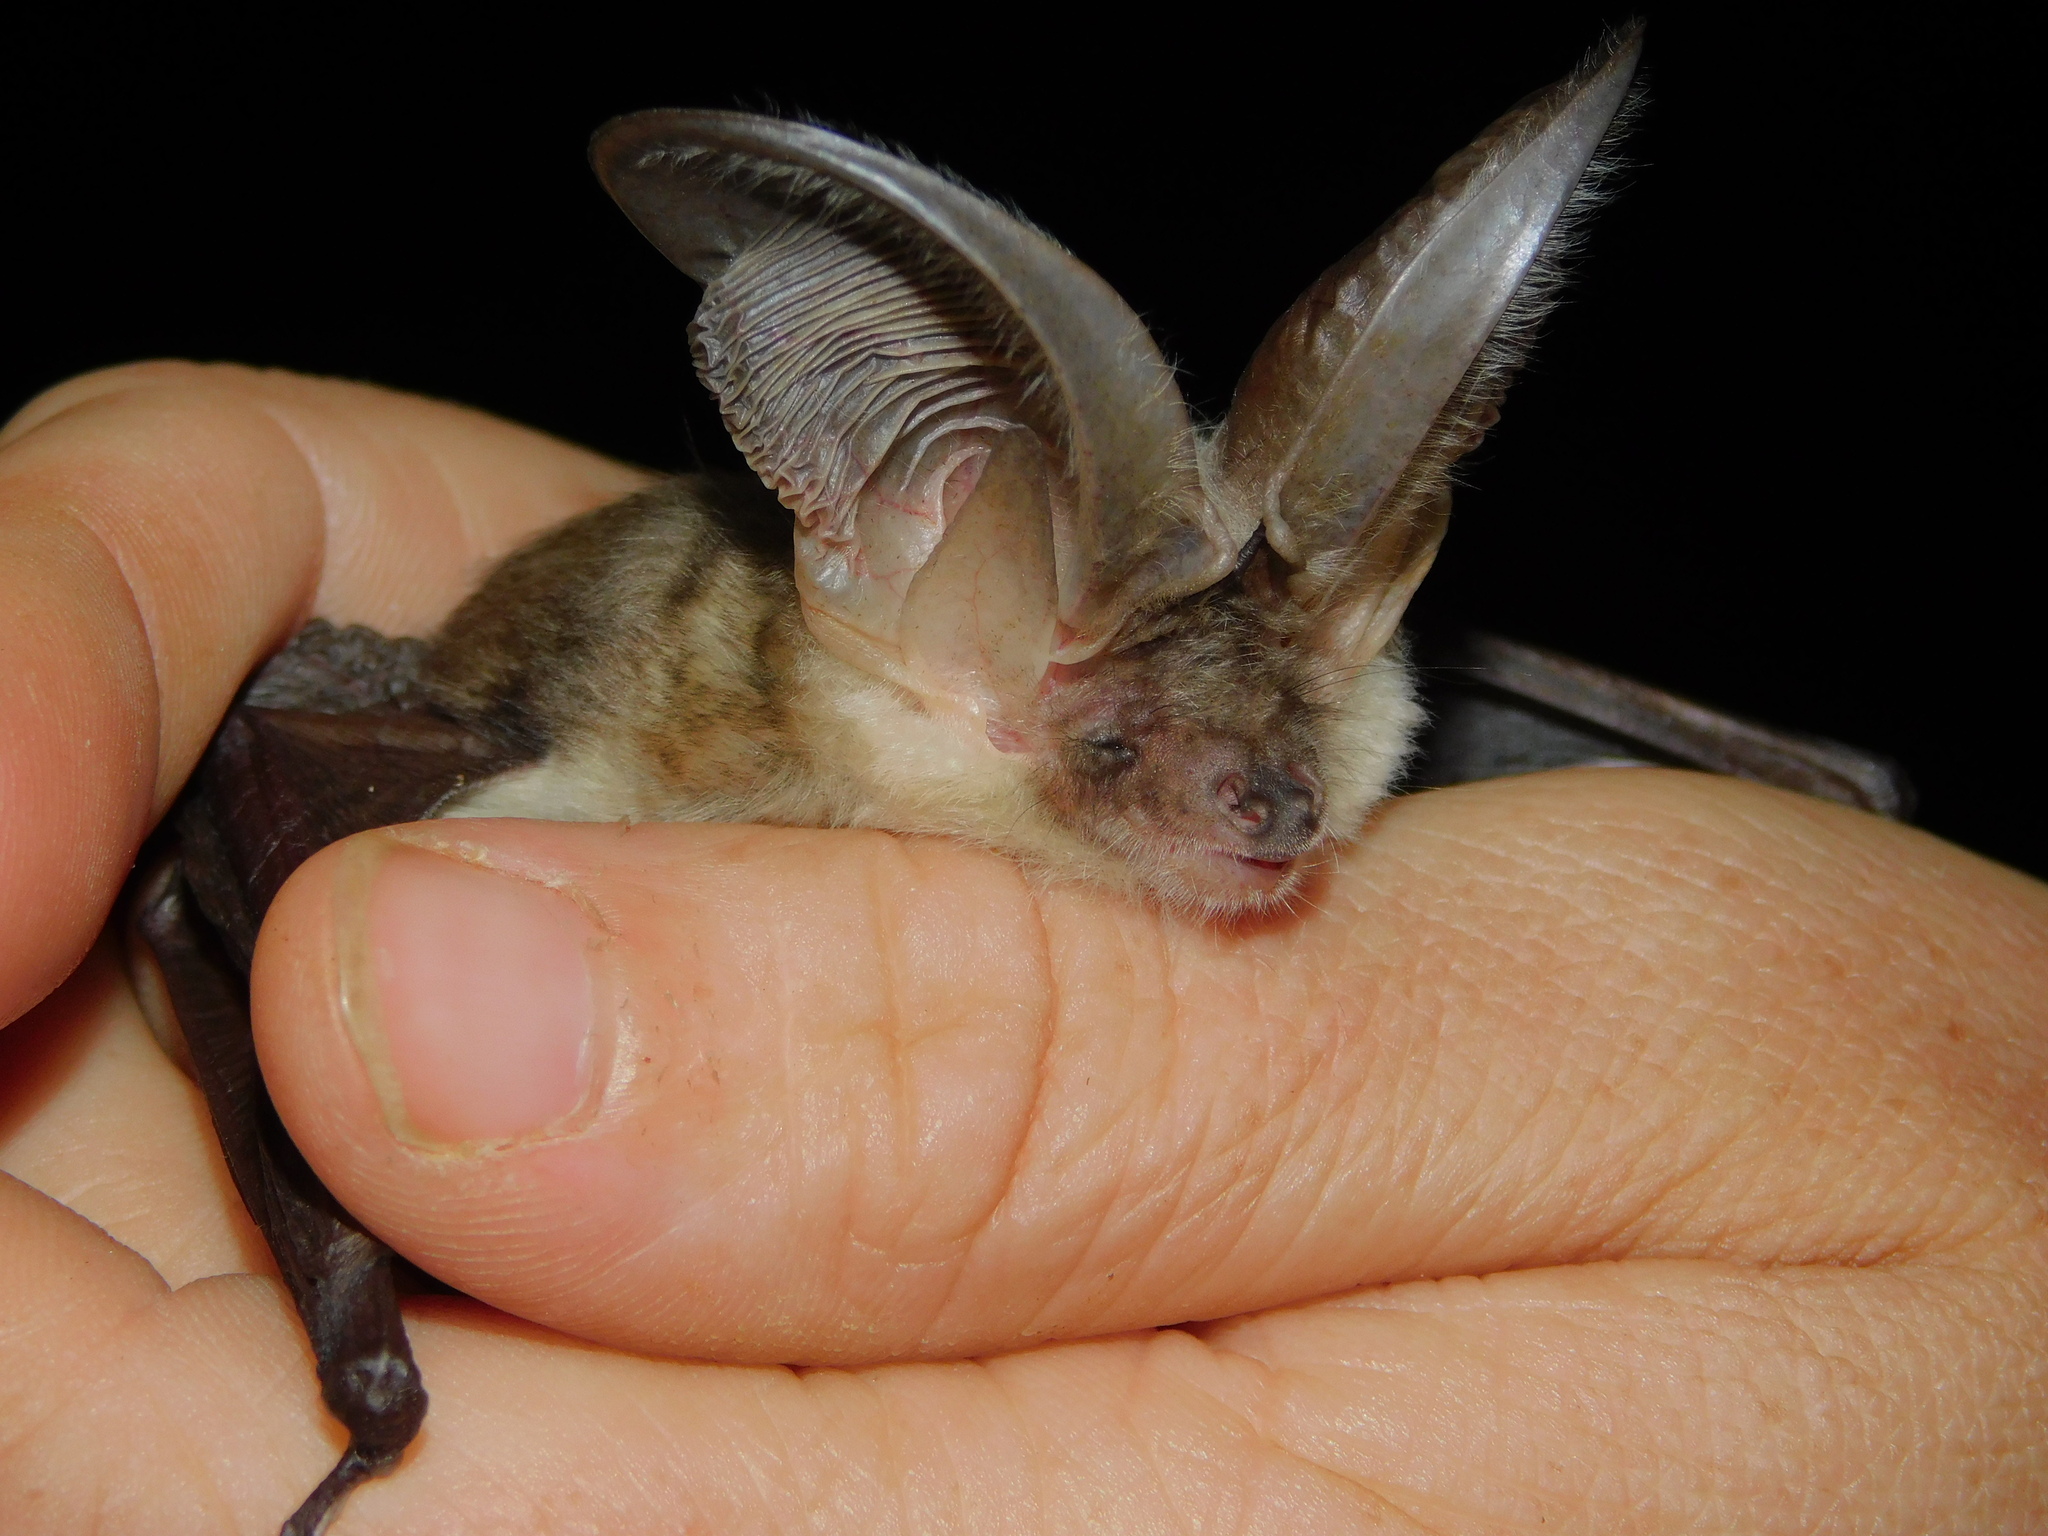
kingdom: Animalia
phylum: Chordata
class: Mammalia
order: Chiroptera
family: Vespertilionidae
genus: Plecotus
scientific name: Plecotus macrobullaris
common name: Mountain long-eared bat
